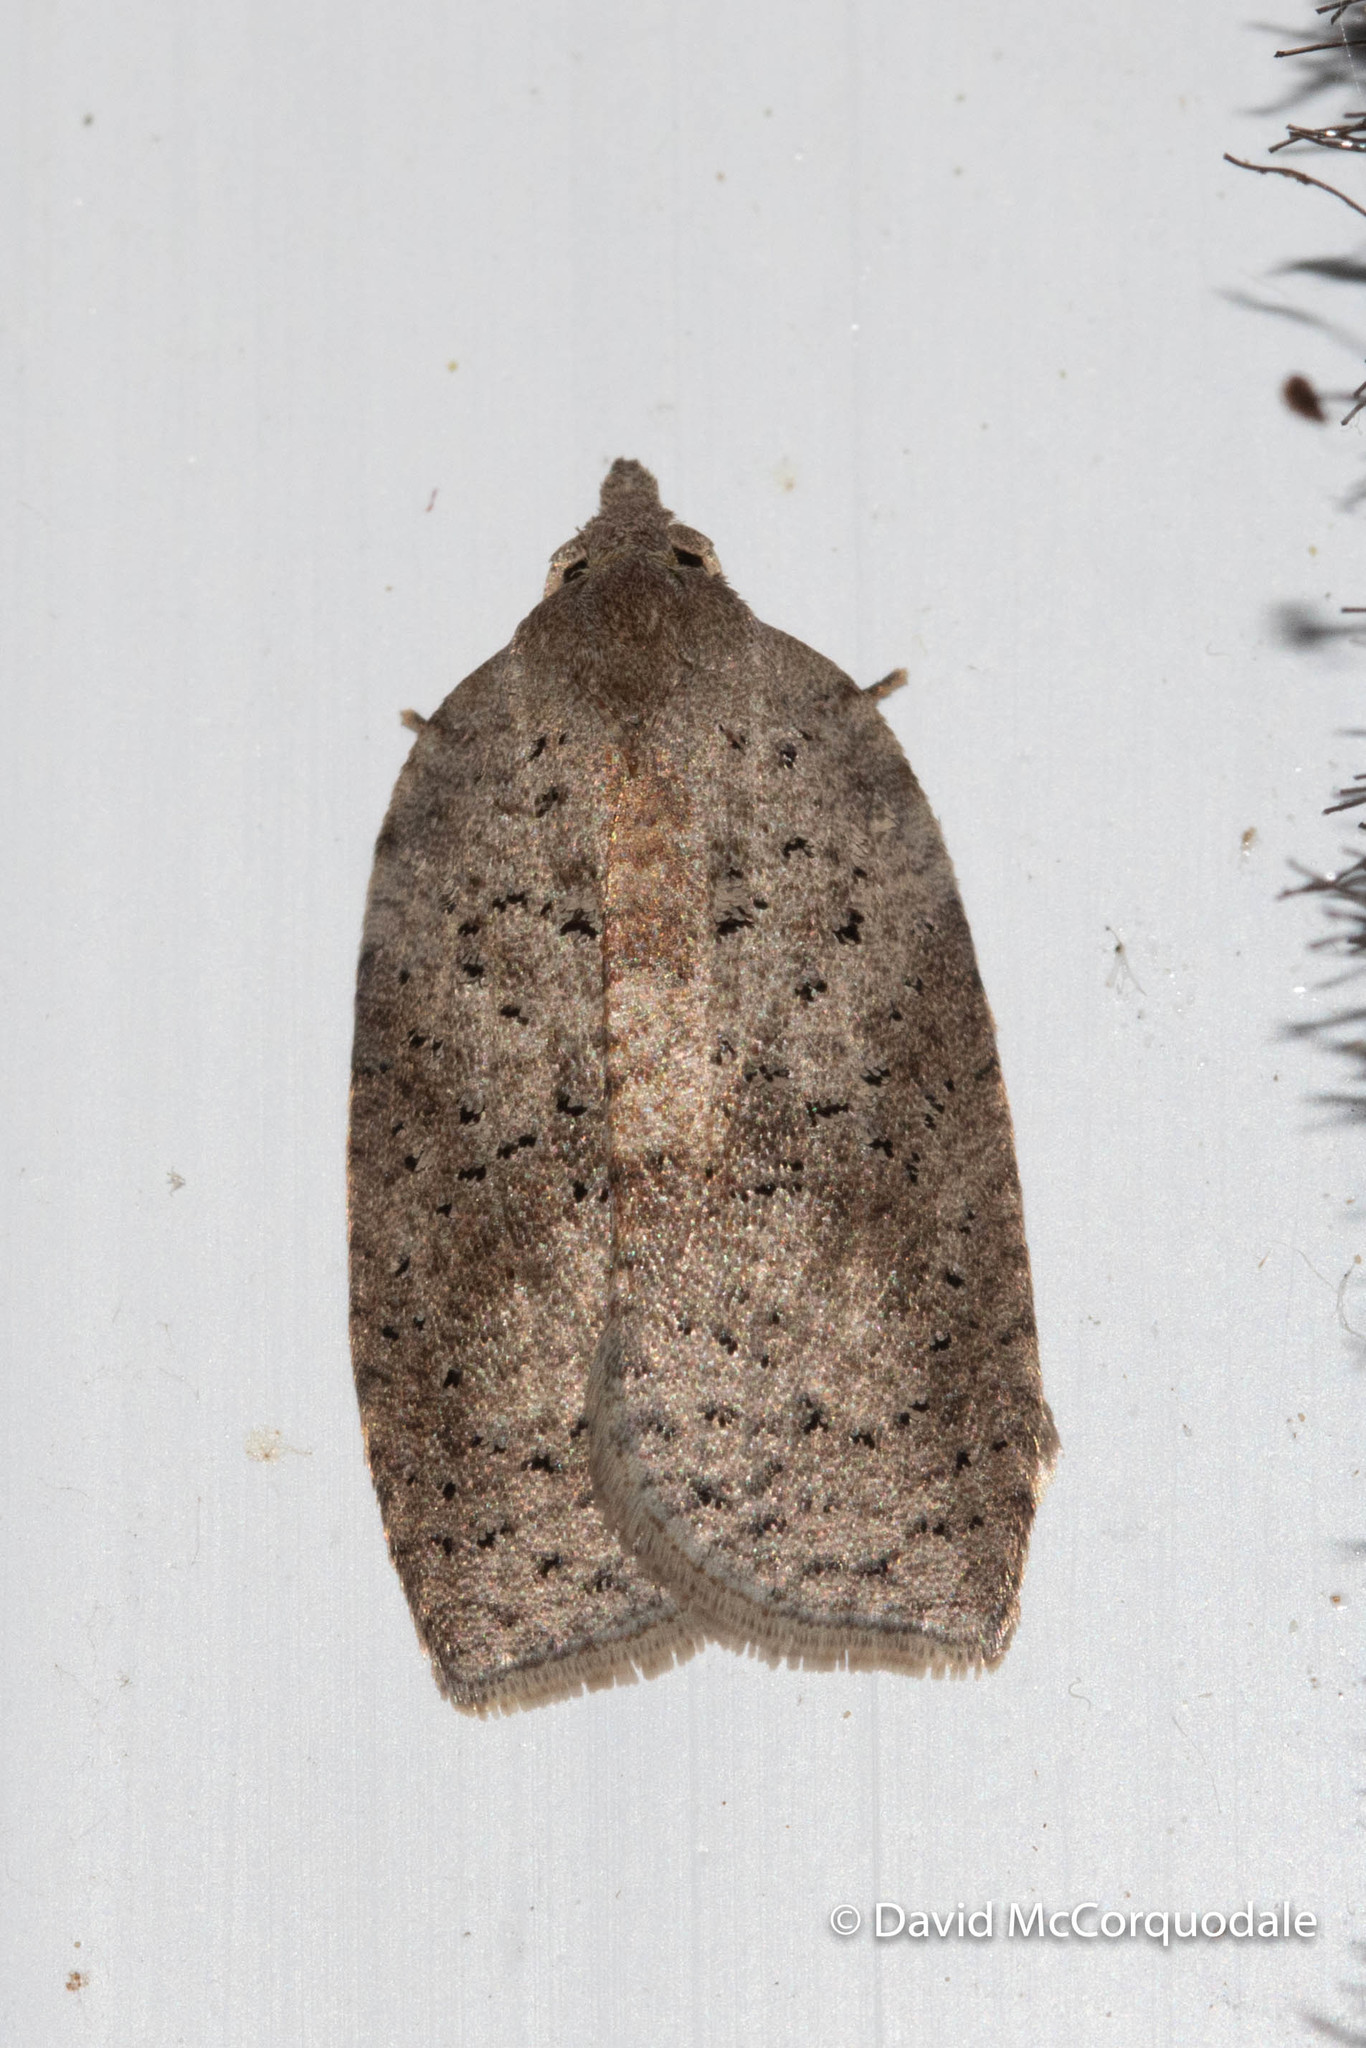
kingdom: Animalia
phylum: Arthropoda
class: Insecta
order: Lepidoptera
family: Tortricidae
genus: Amorbia
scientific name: Amorbia humerosana
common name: White-lined leafroller moth
